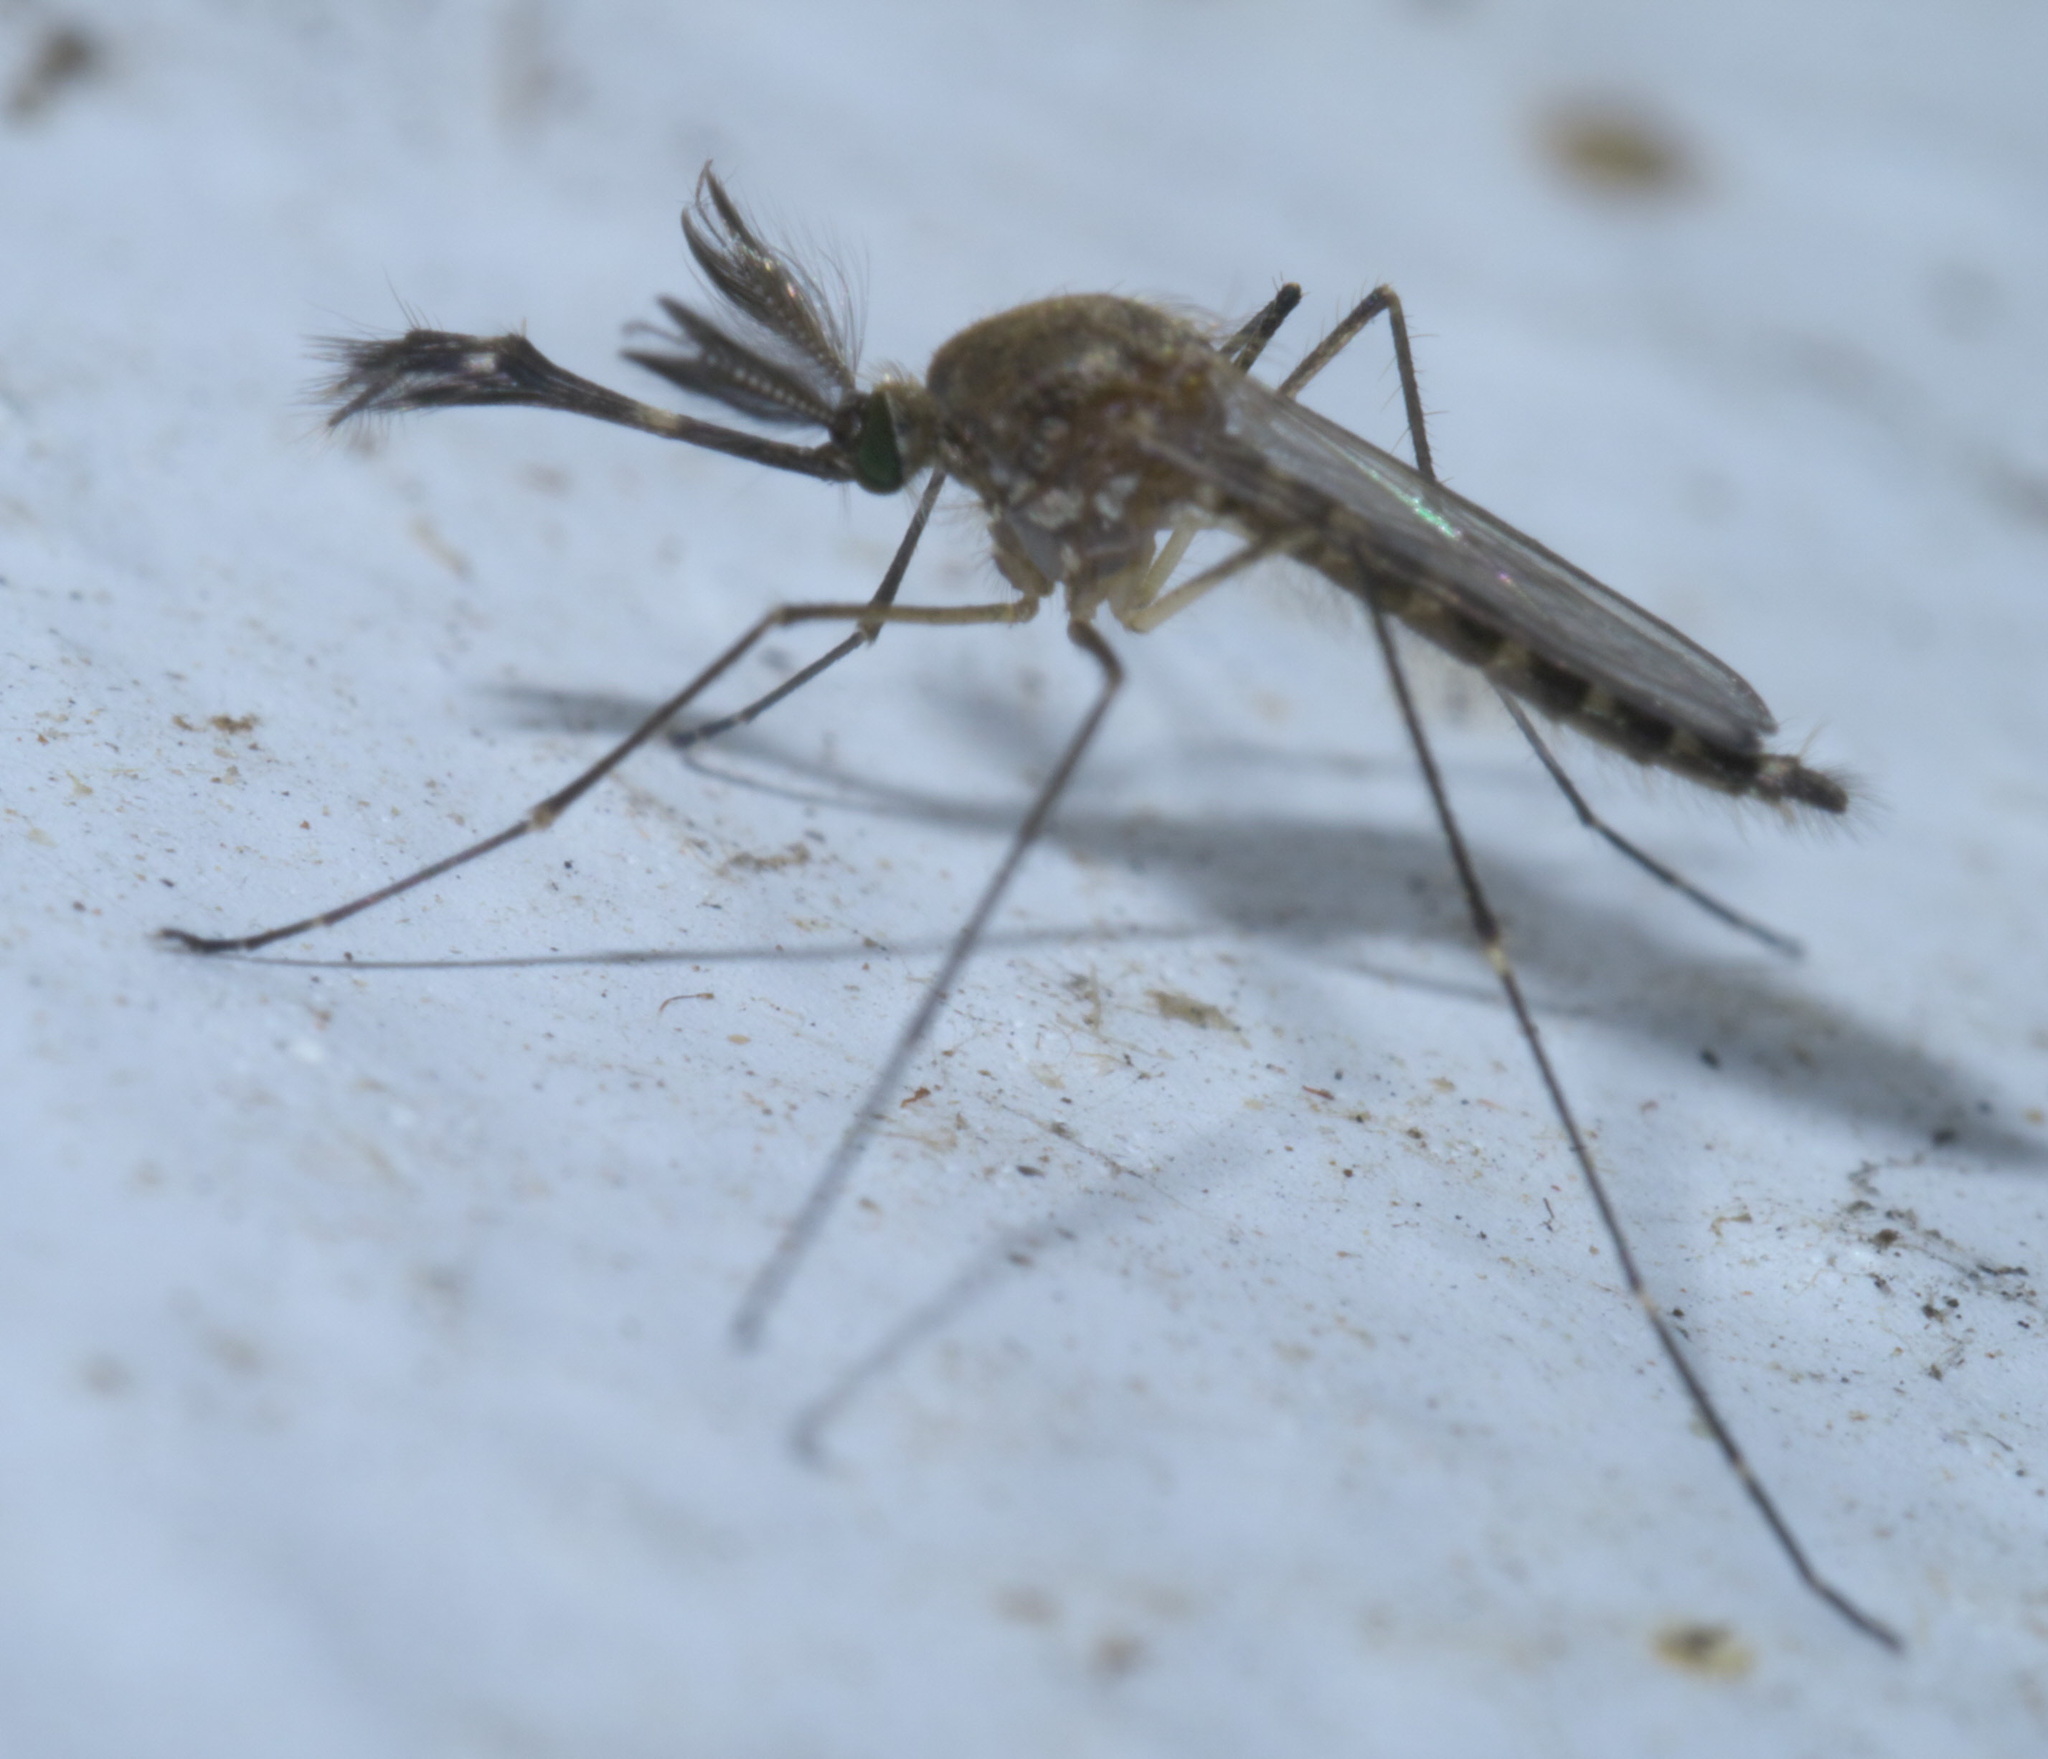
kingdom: Animalia
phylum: Arthropoda
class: Insecta
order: Diptera
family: Culicidae
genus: Aedes
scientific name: Aedes vexans
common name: Inland floodwater mosquito
